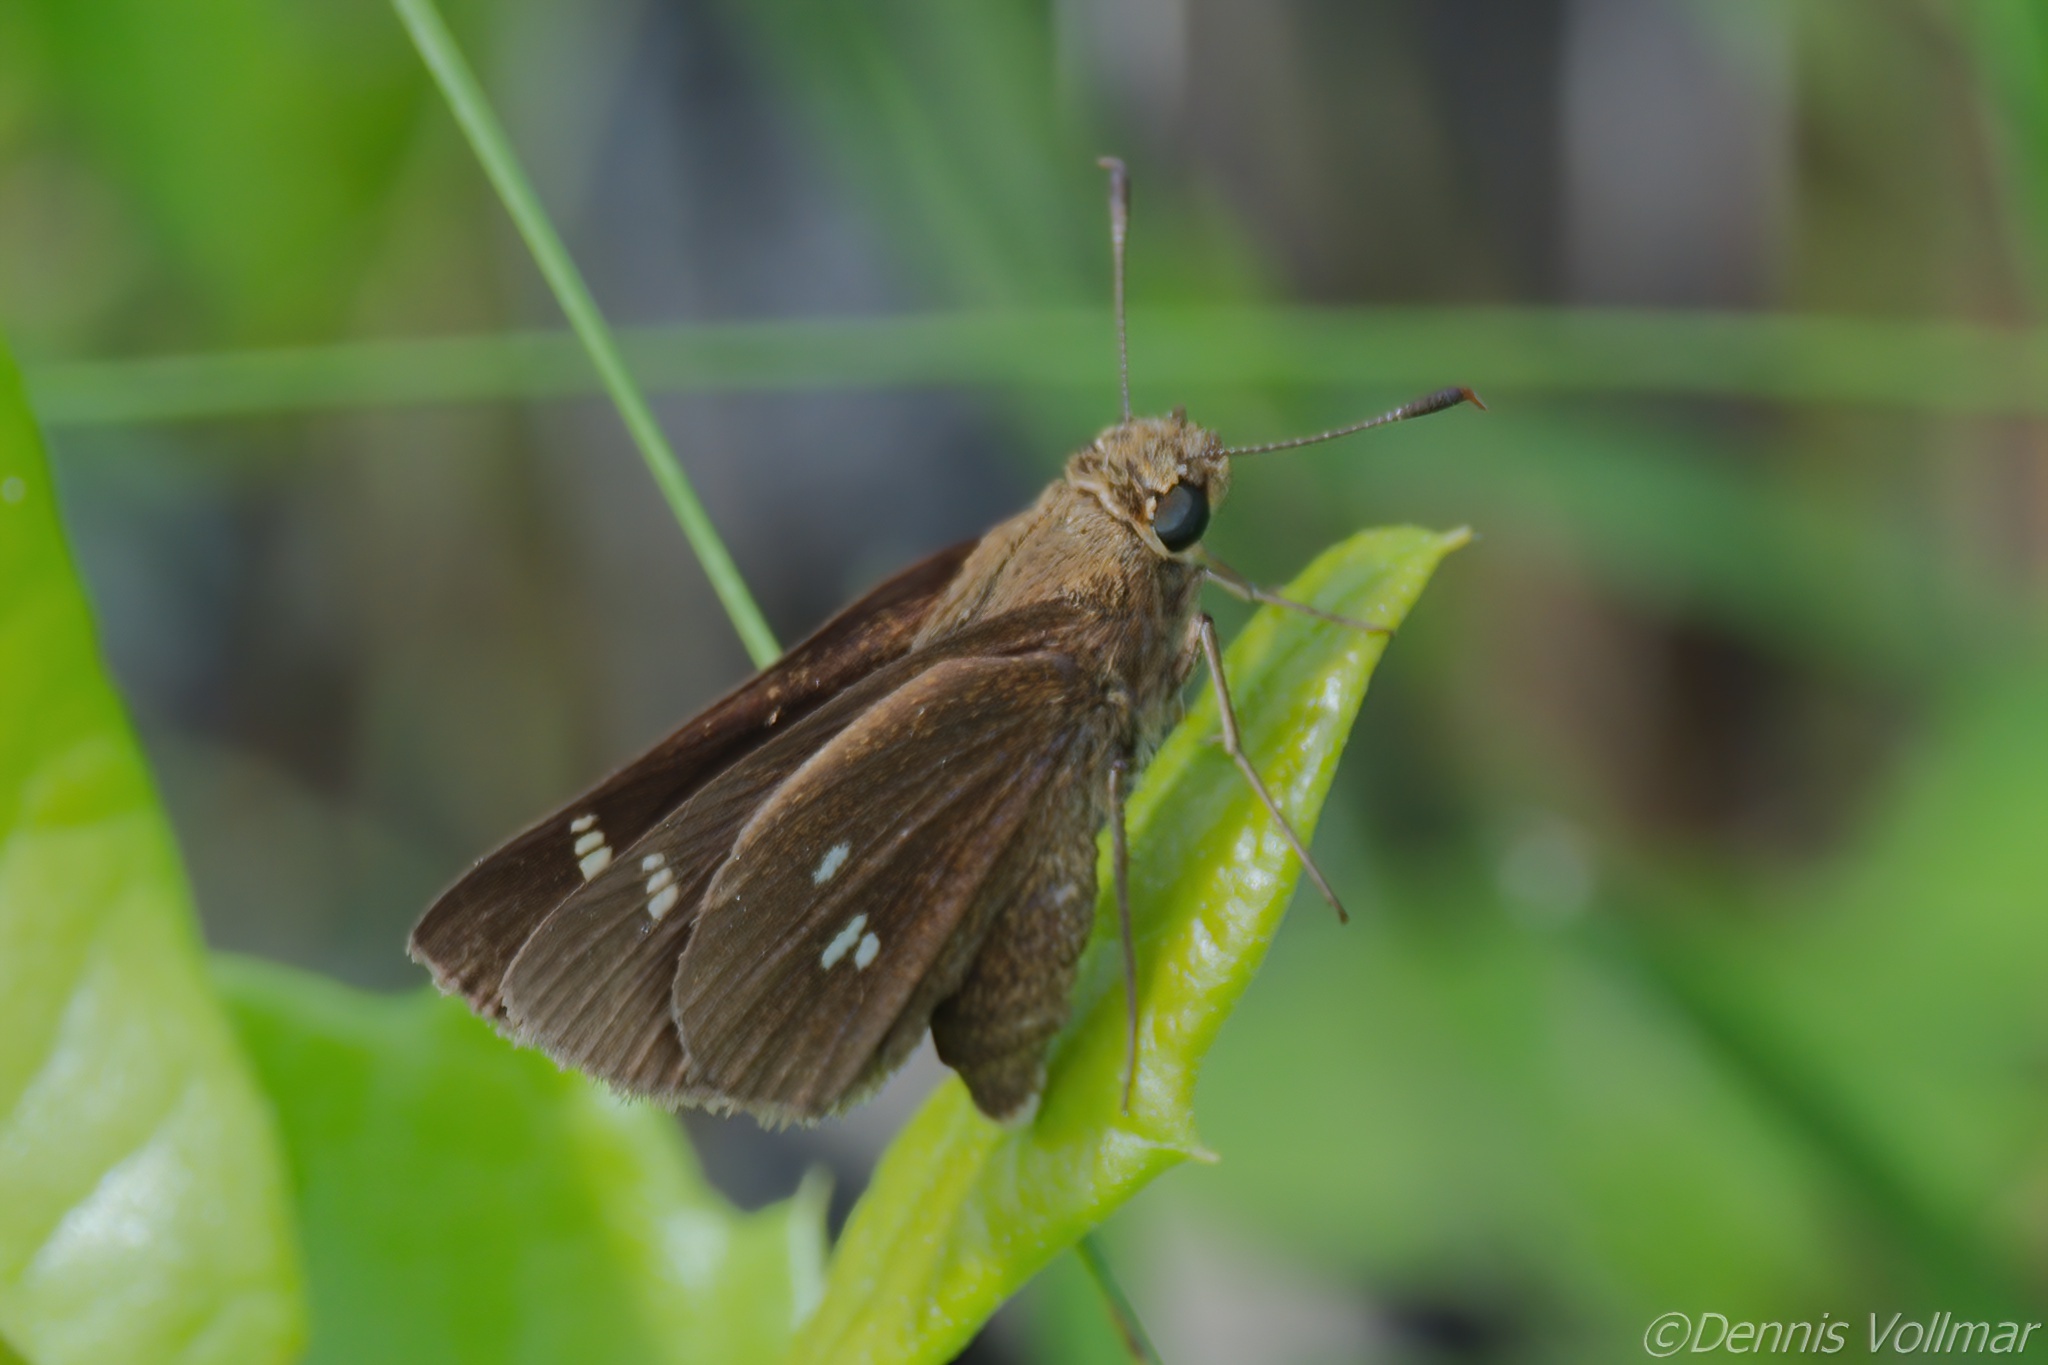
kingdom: Animalia
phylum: Arthropoda
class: Insecta
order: Lepidoptera
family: Hesperiidae
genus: Oligoria
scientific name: Oligoria maculata
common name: Twin-spot skipper
